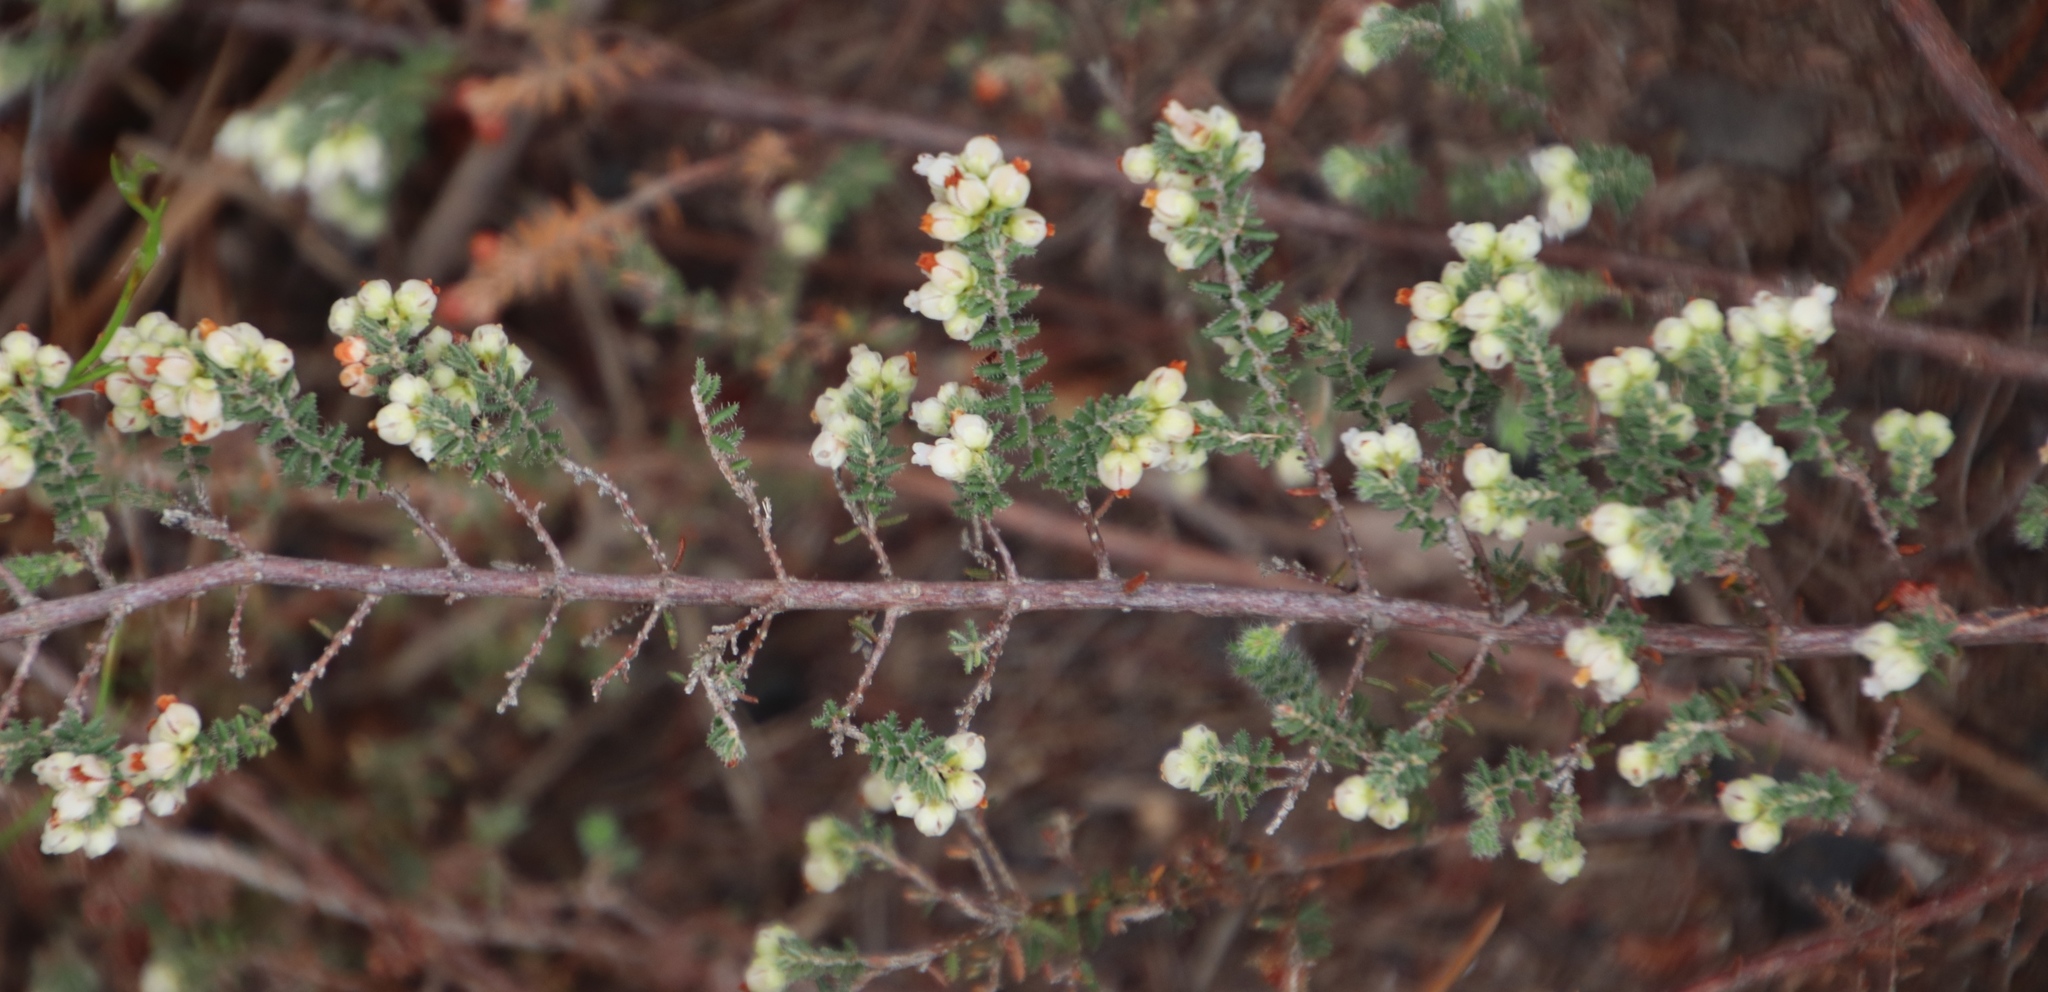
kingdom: Plantae
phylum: Tracheophyta
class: Magnoliopsida
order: Ericales
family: Ericaceae
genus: Erica
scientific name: Erica totta
